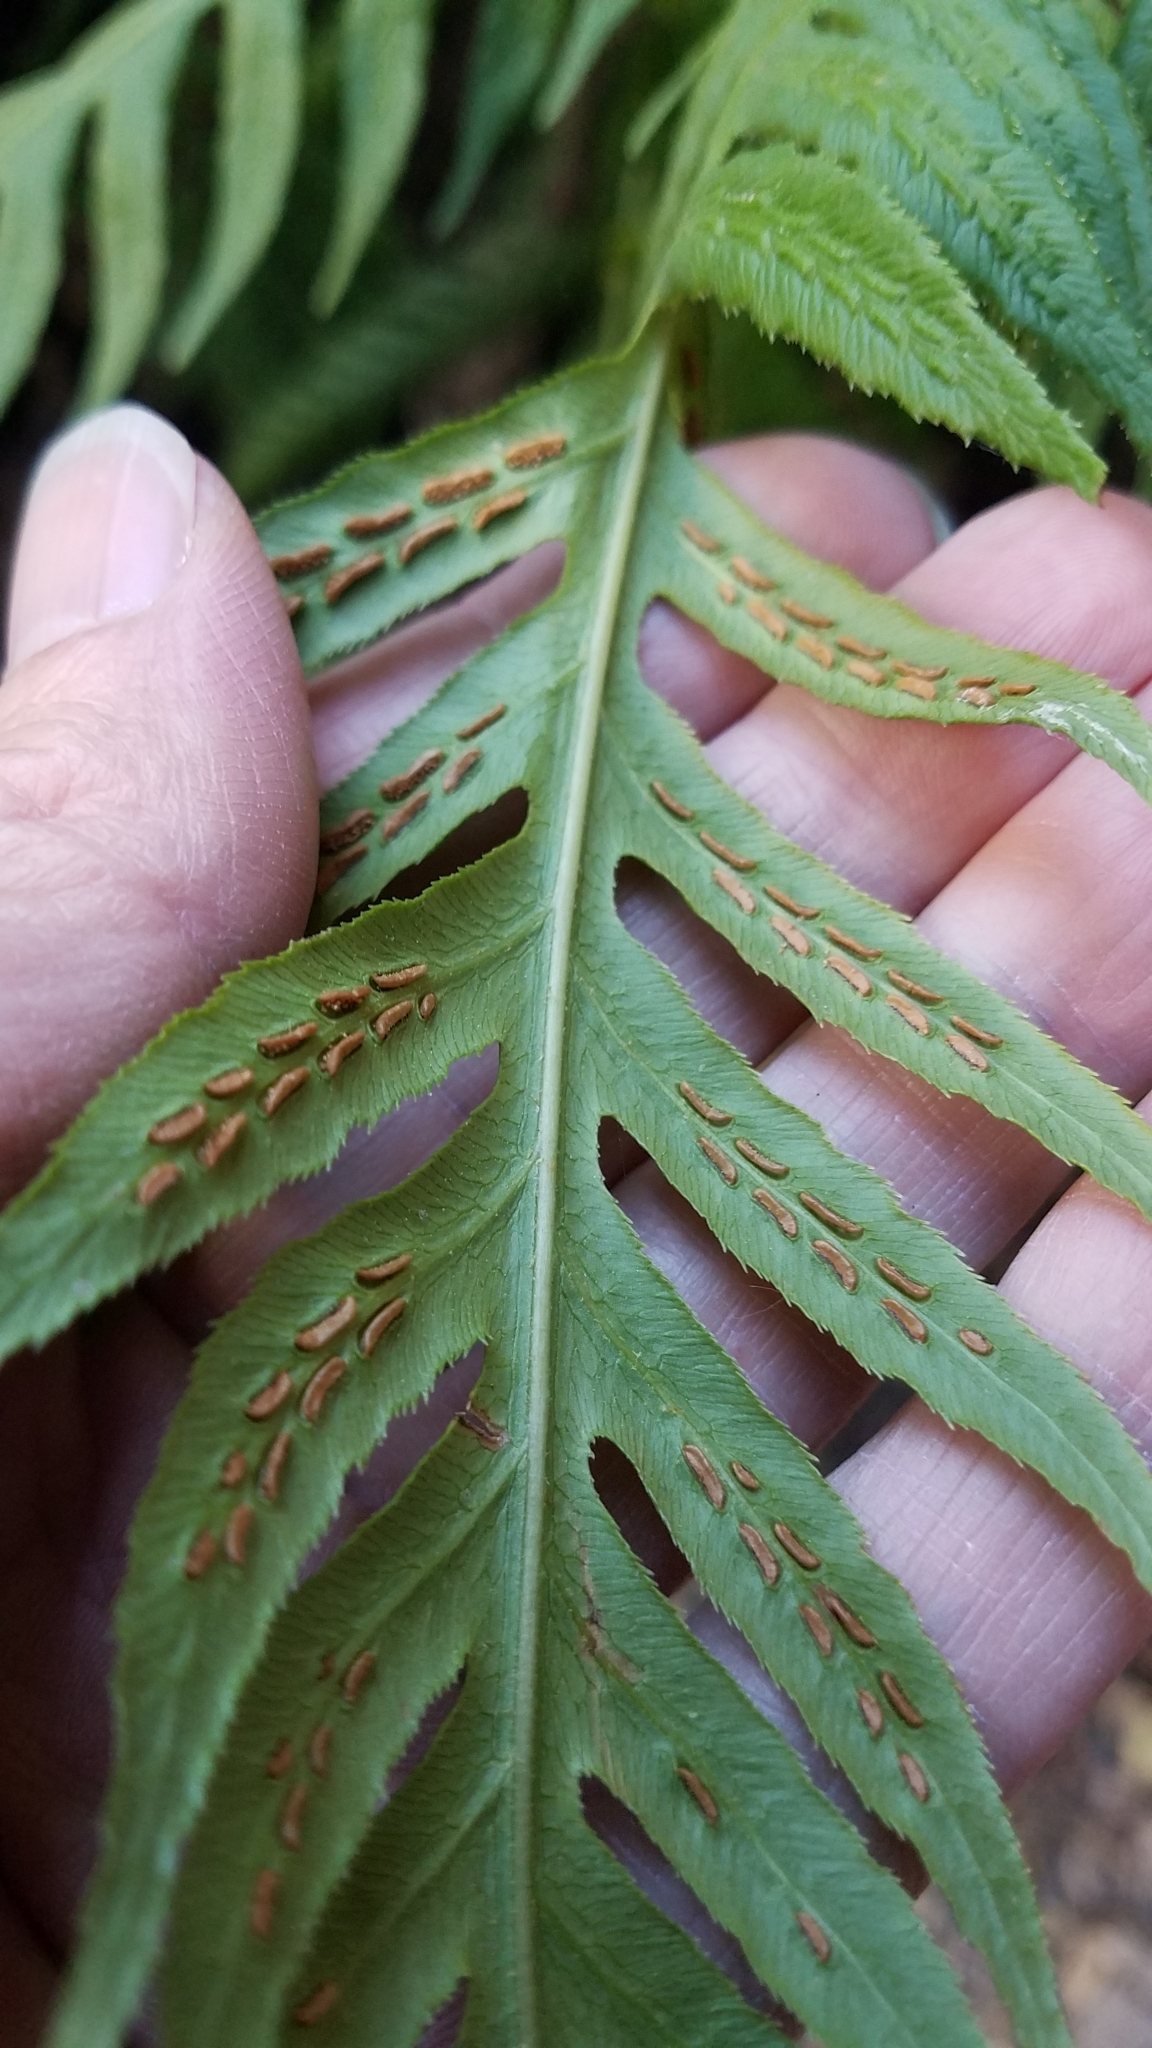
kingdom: Plantae
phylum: Tracheophyta
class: Polypodiopsida
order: Polypodiales
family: Blechnaceae
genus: Woodwardia
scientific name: Woodwardia fimbriata
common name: Giant chain fern
